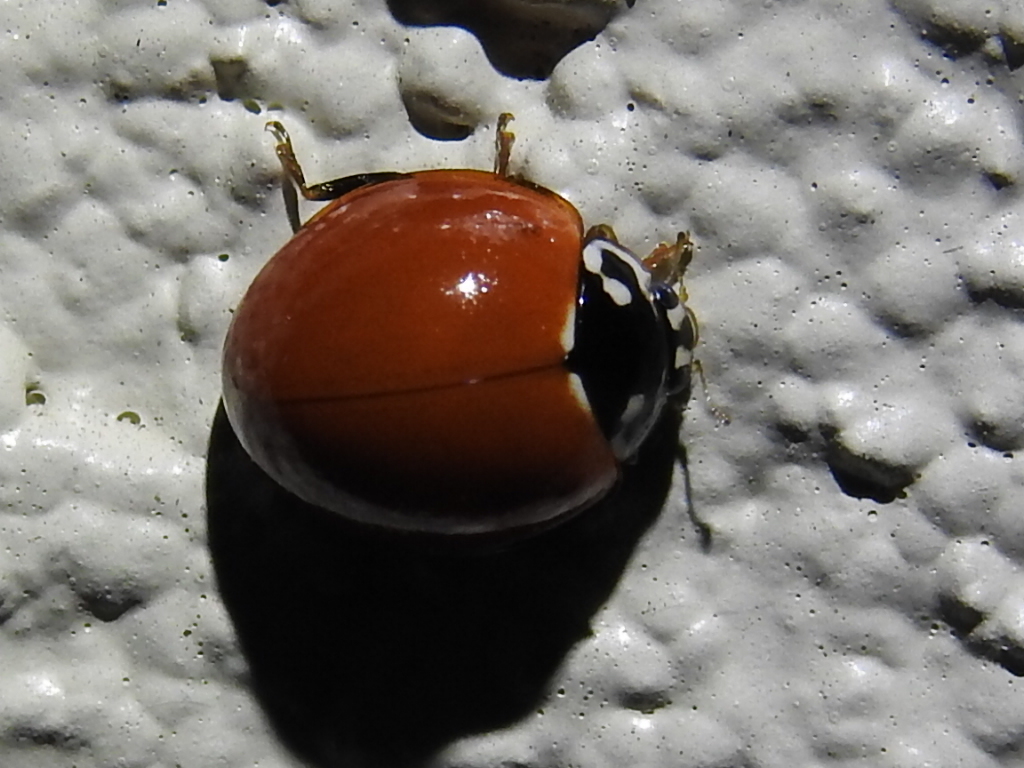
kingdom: Animalia
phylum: Arthropoda
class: Insecta
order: Coleoptera
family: Coccinellidae
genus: Cycloneda
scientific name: Cycloneda sanguinea
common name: Ladybird beetle
